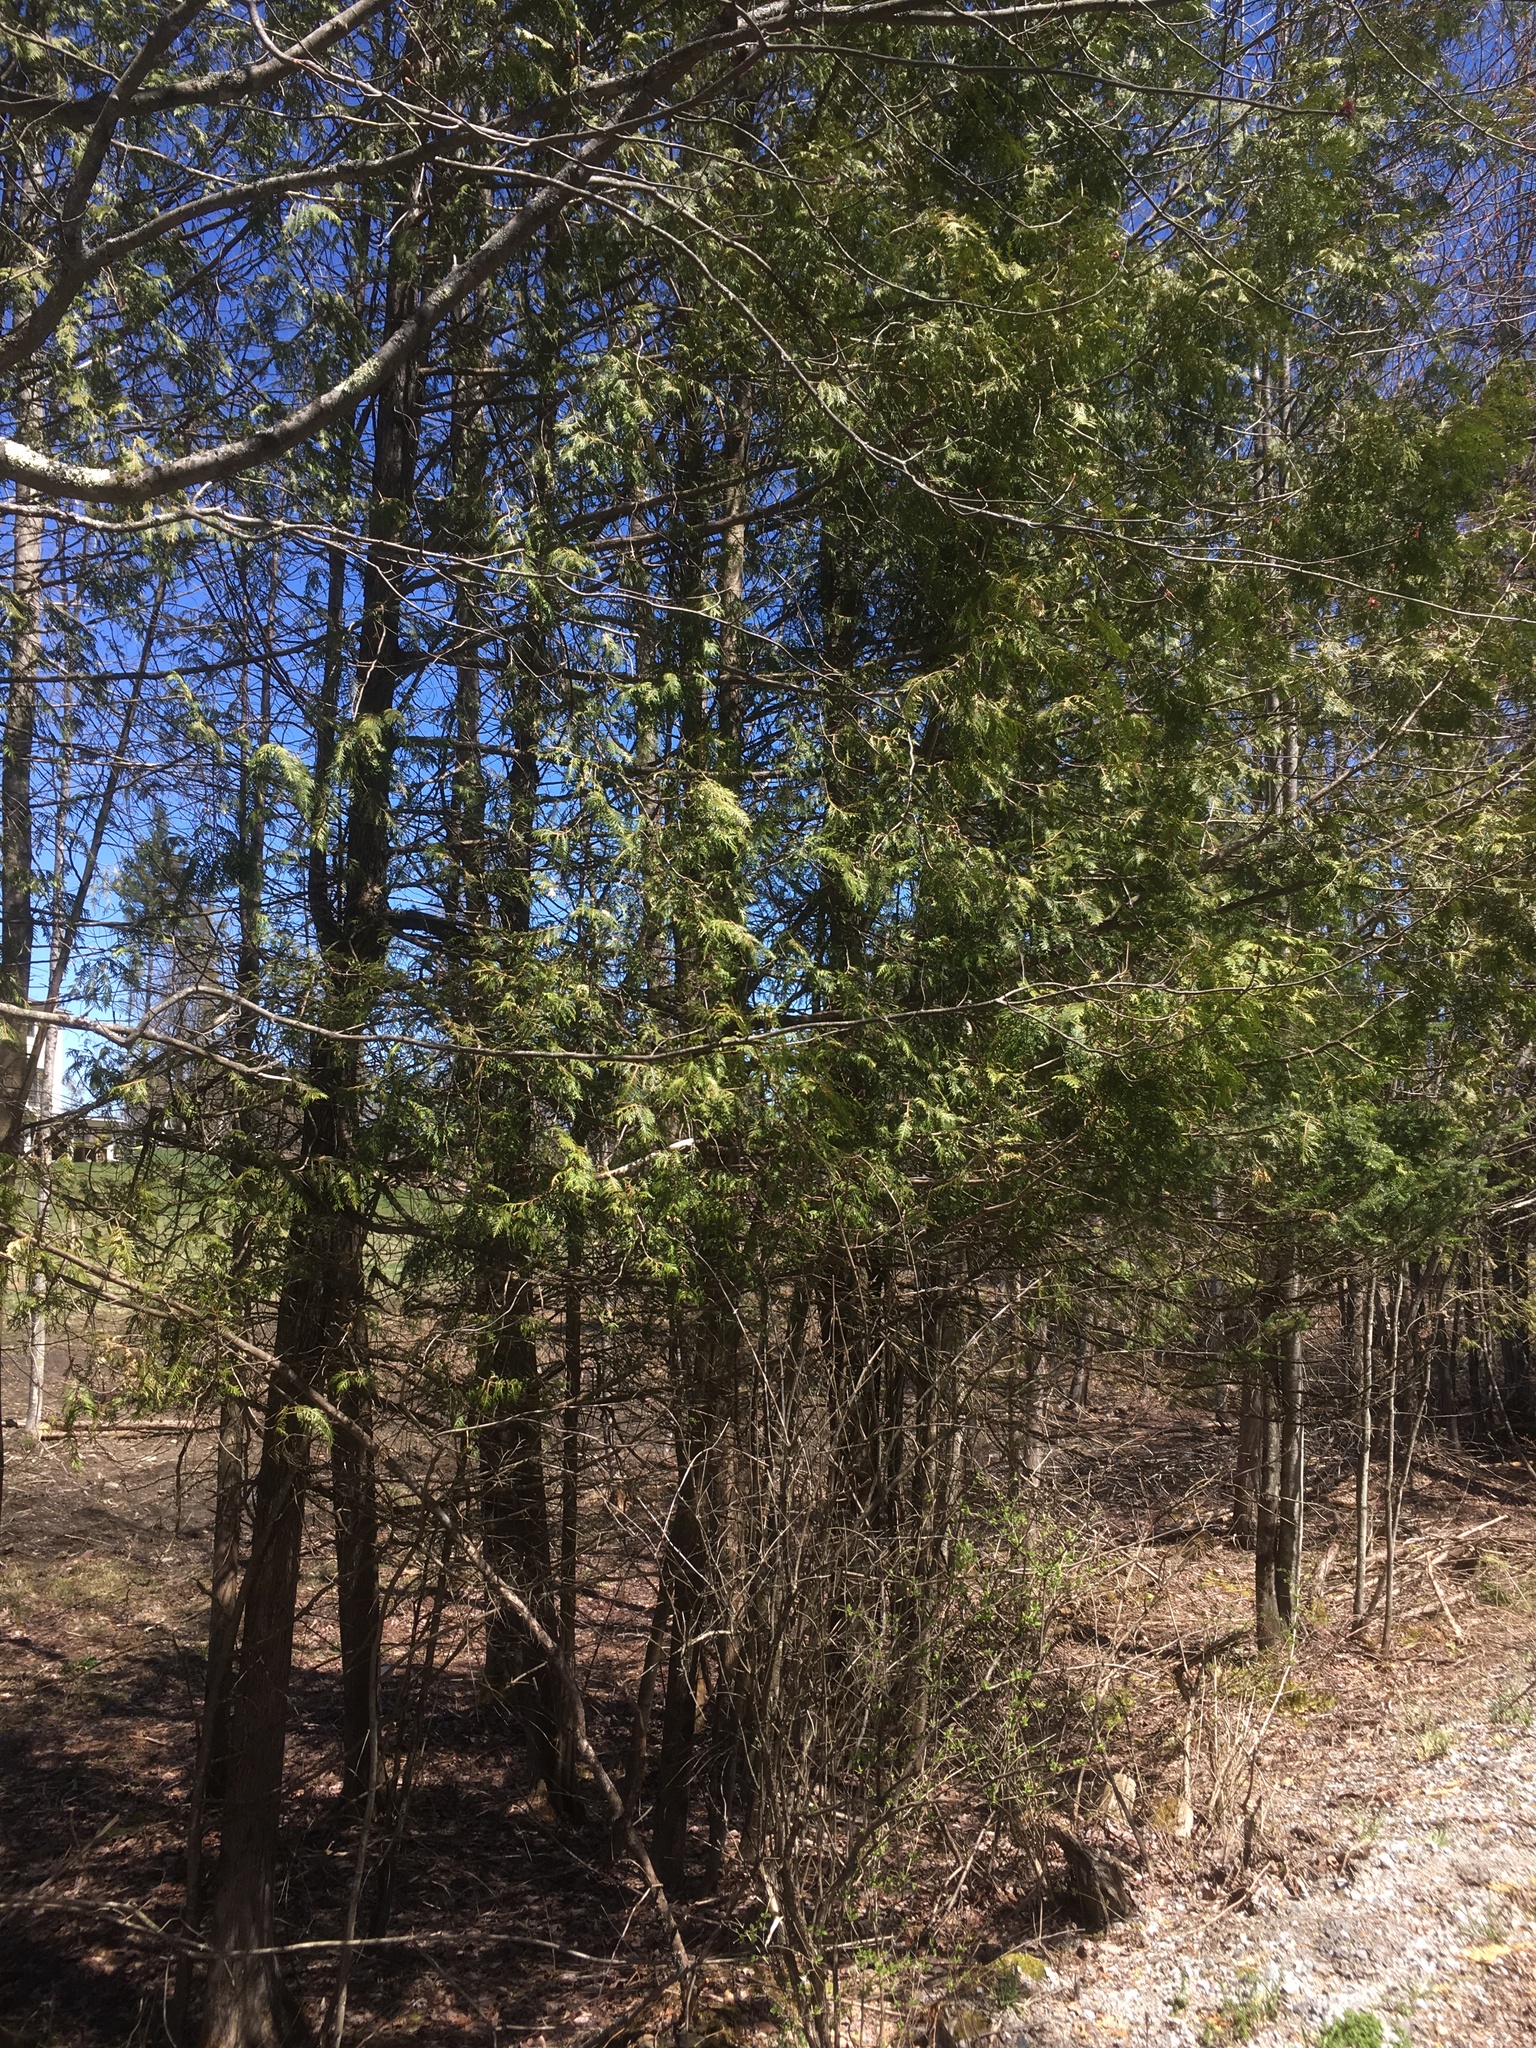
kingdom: Plantae
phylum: Tracheophyta
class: Pinopsida
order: Pinales
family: Cupressaceae
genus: Thuja
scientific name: Thuja occidentalis
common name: Northern white-cedar
